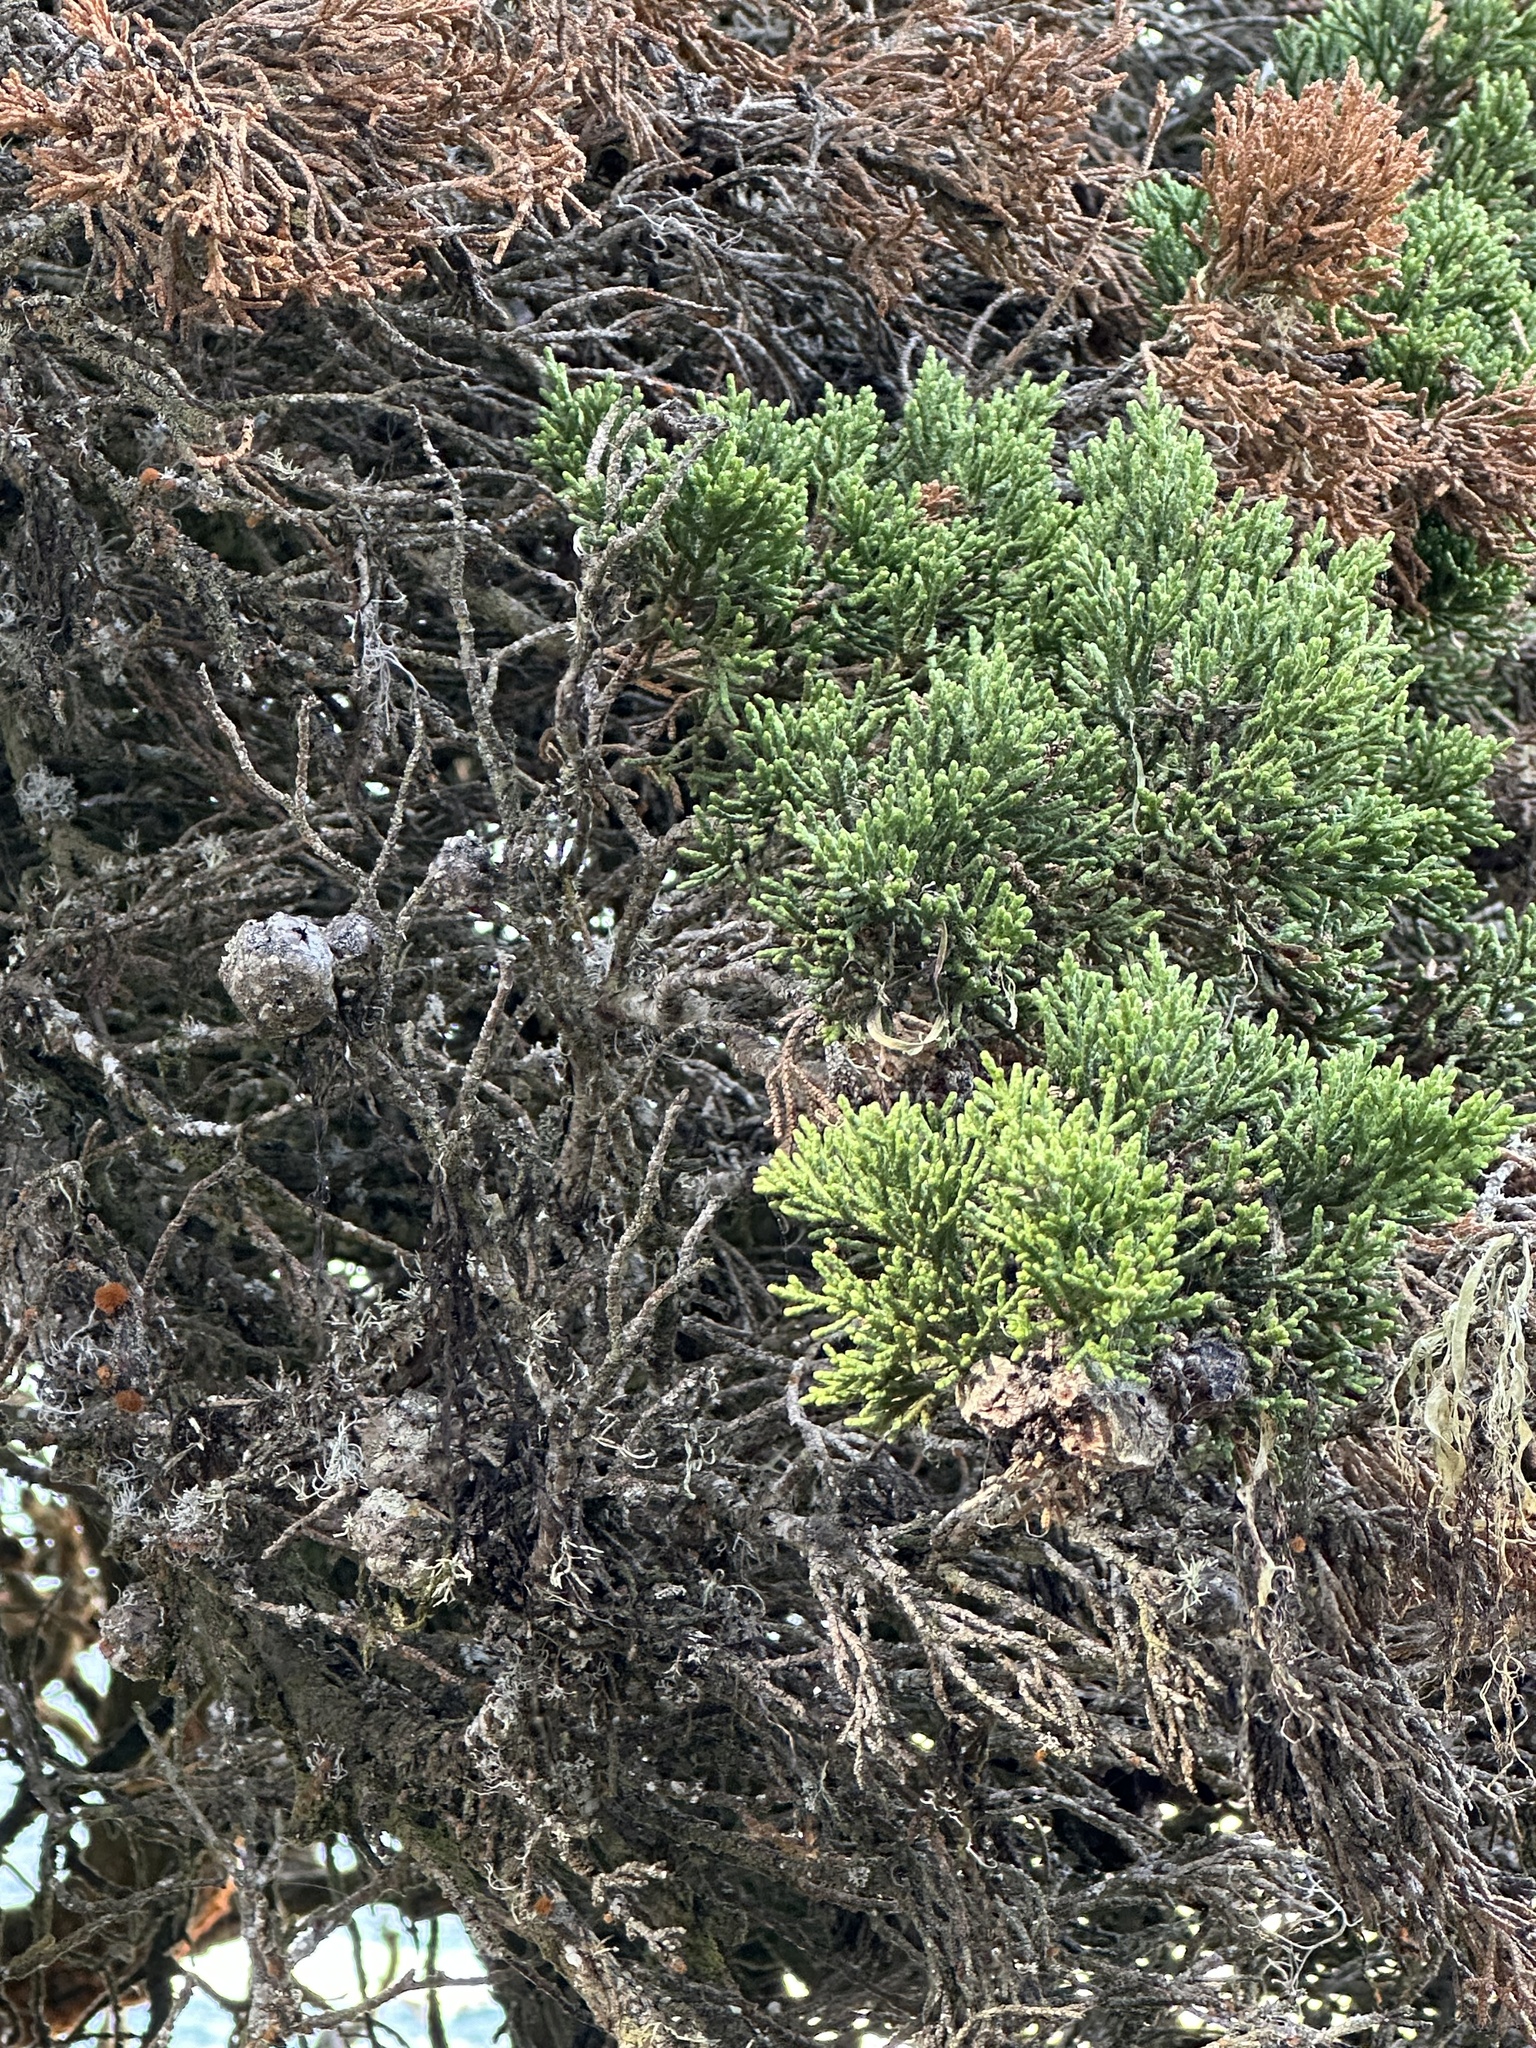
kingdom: Plantae
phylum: Tracheophyta
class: Pinopsida
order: Pinales
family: Cupressaceae
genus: Cupressus
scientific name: Cupressus macrocarpa
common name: Monterey cypress
